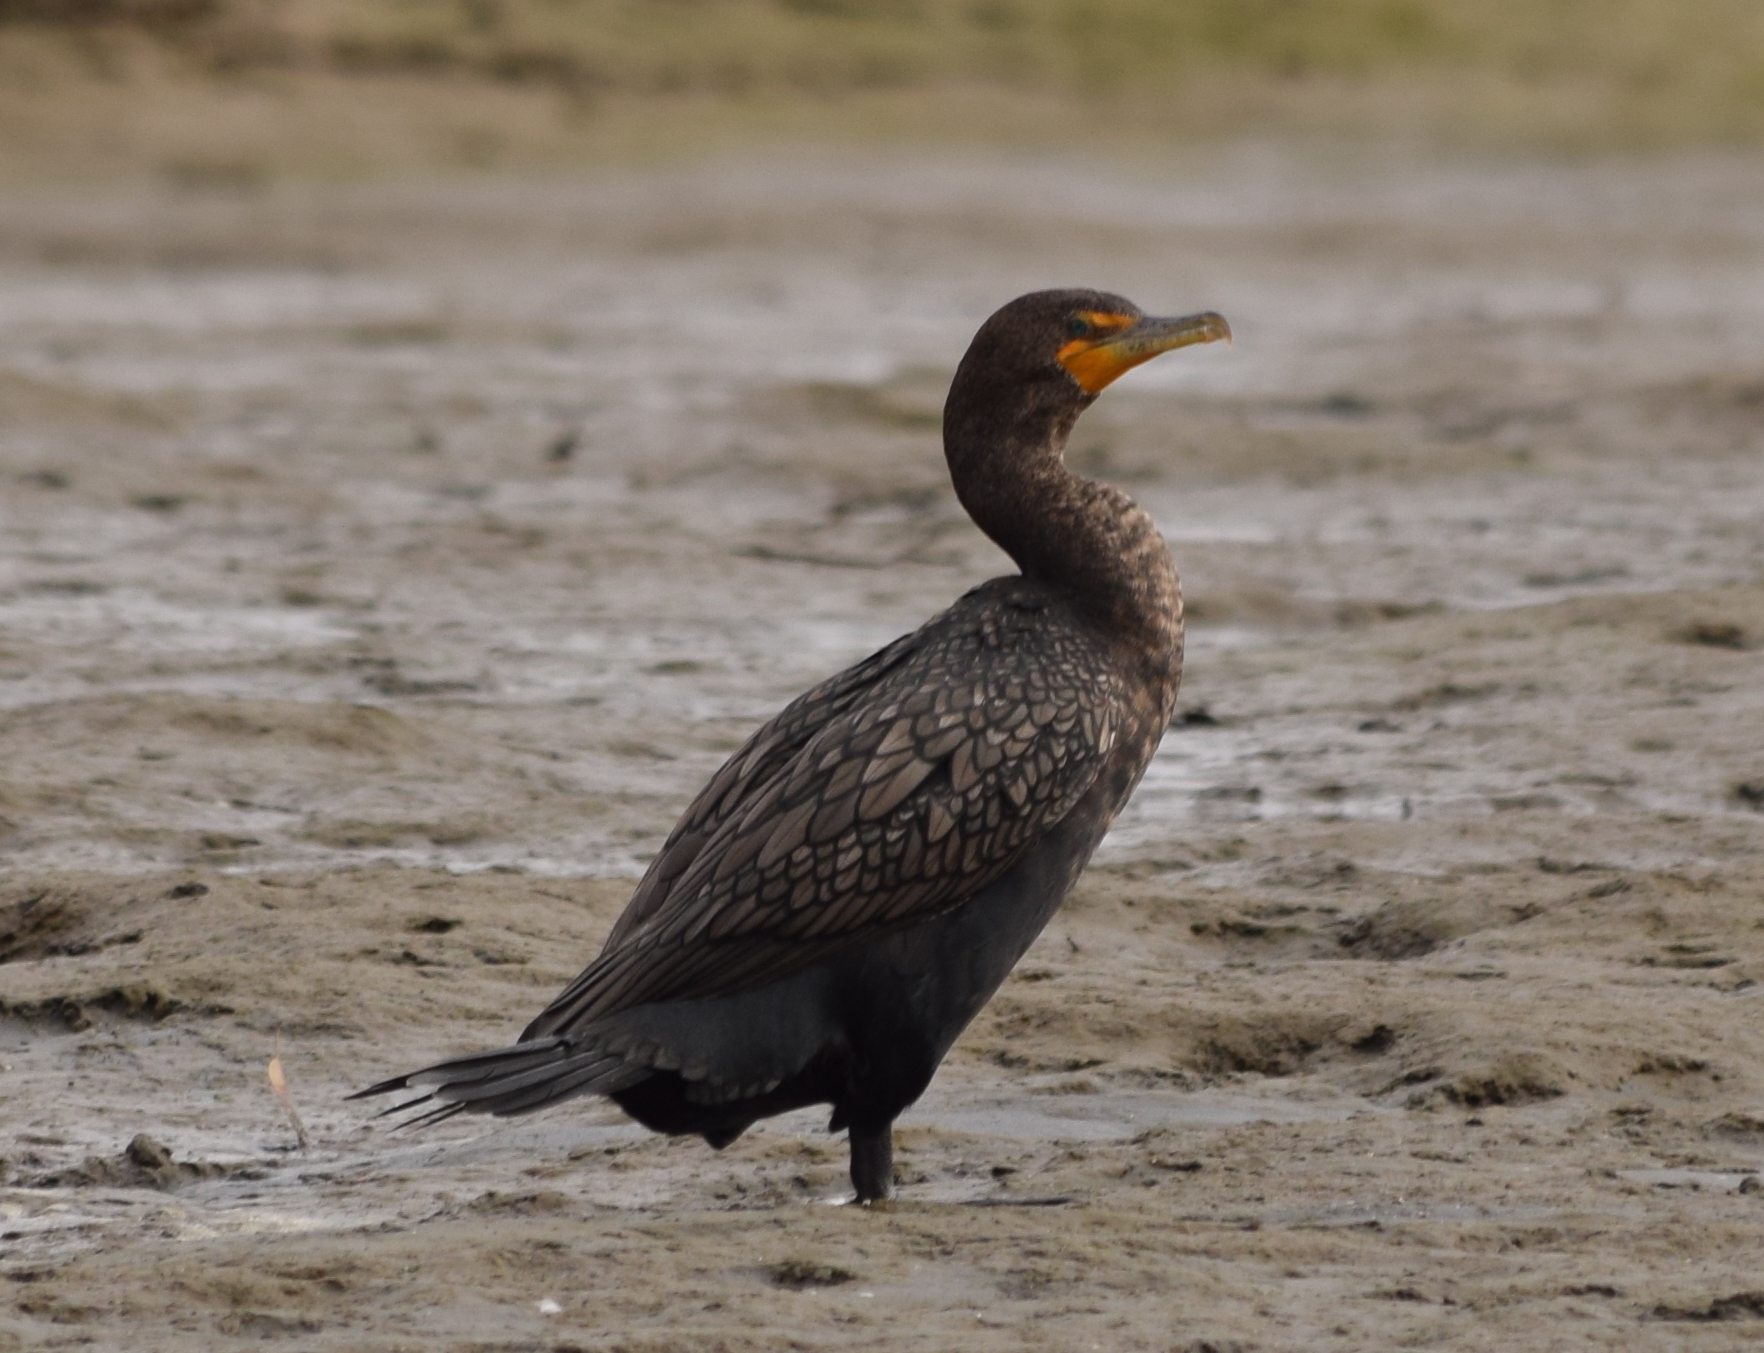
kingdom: Animalia
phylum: Chordata
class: Aves
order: Suliformes
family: Phalacrocoracidae
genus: Phalacrocorax
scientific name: Phalacrocorax auritus
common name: Double-crested cormorant
